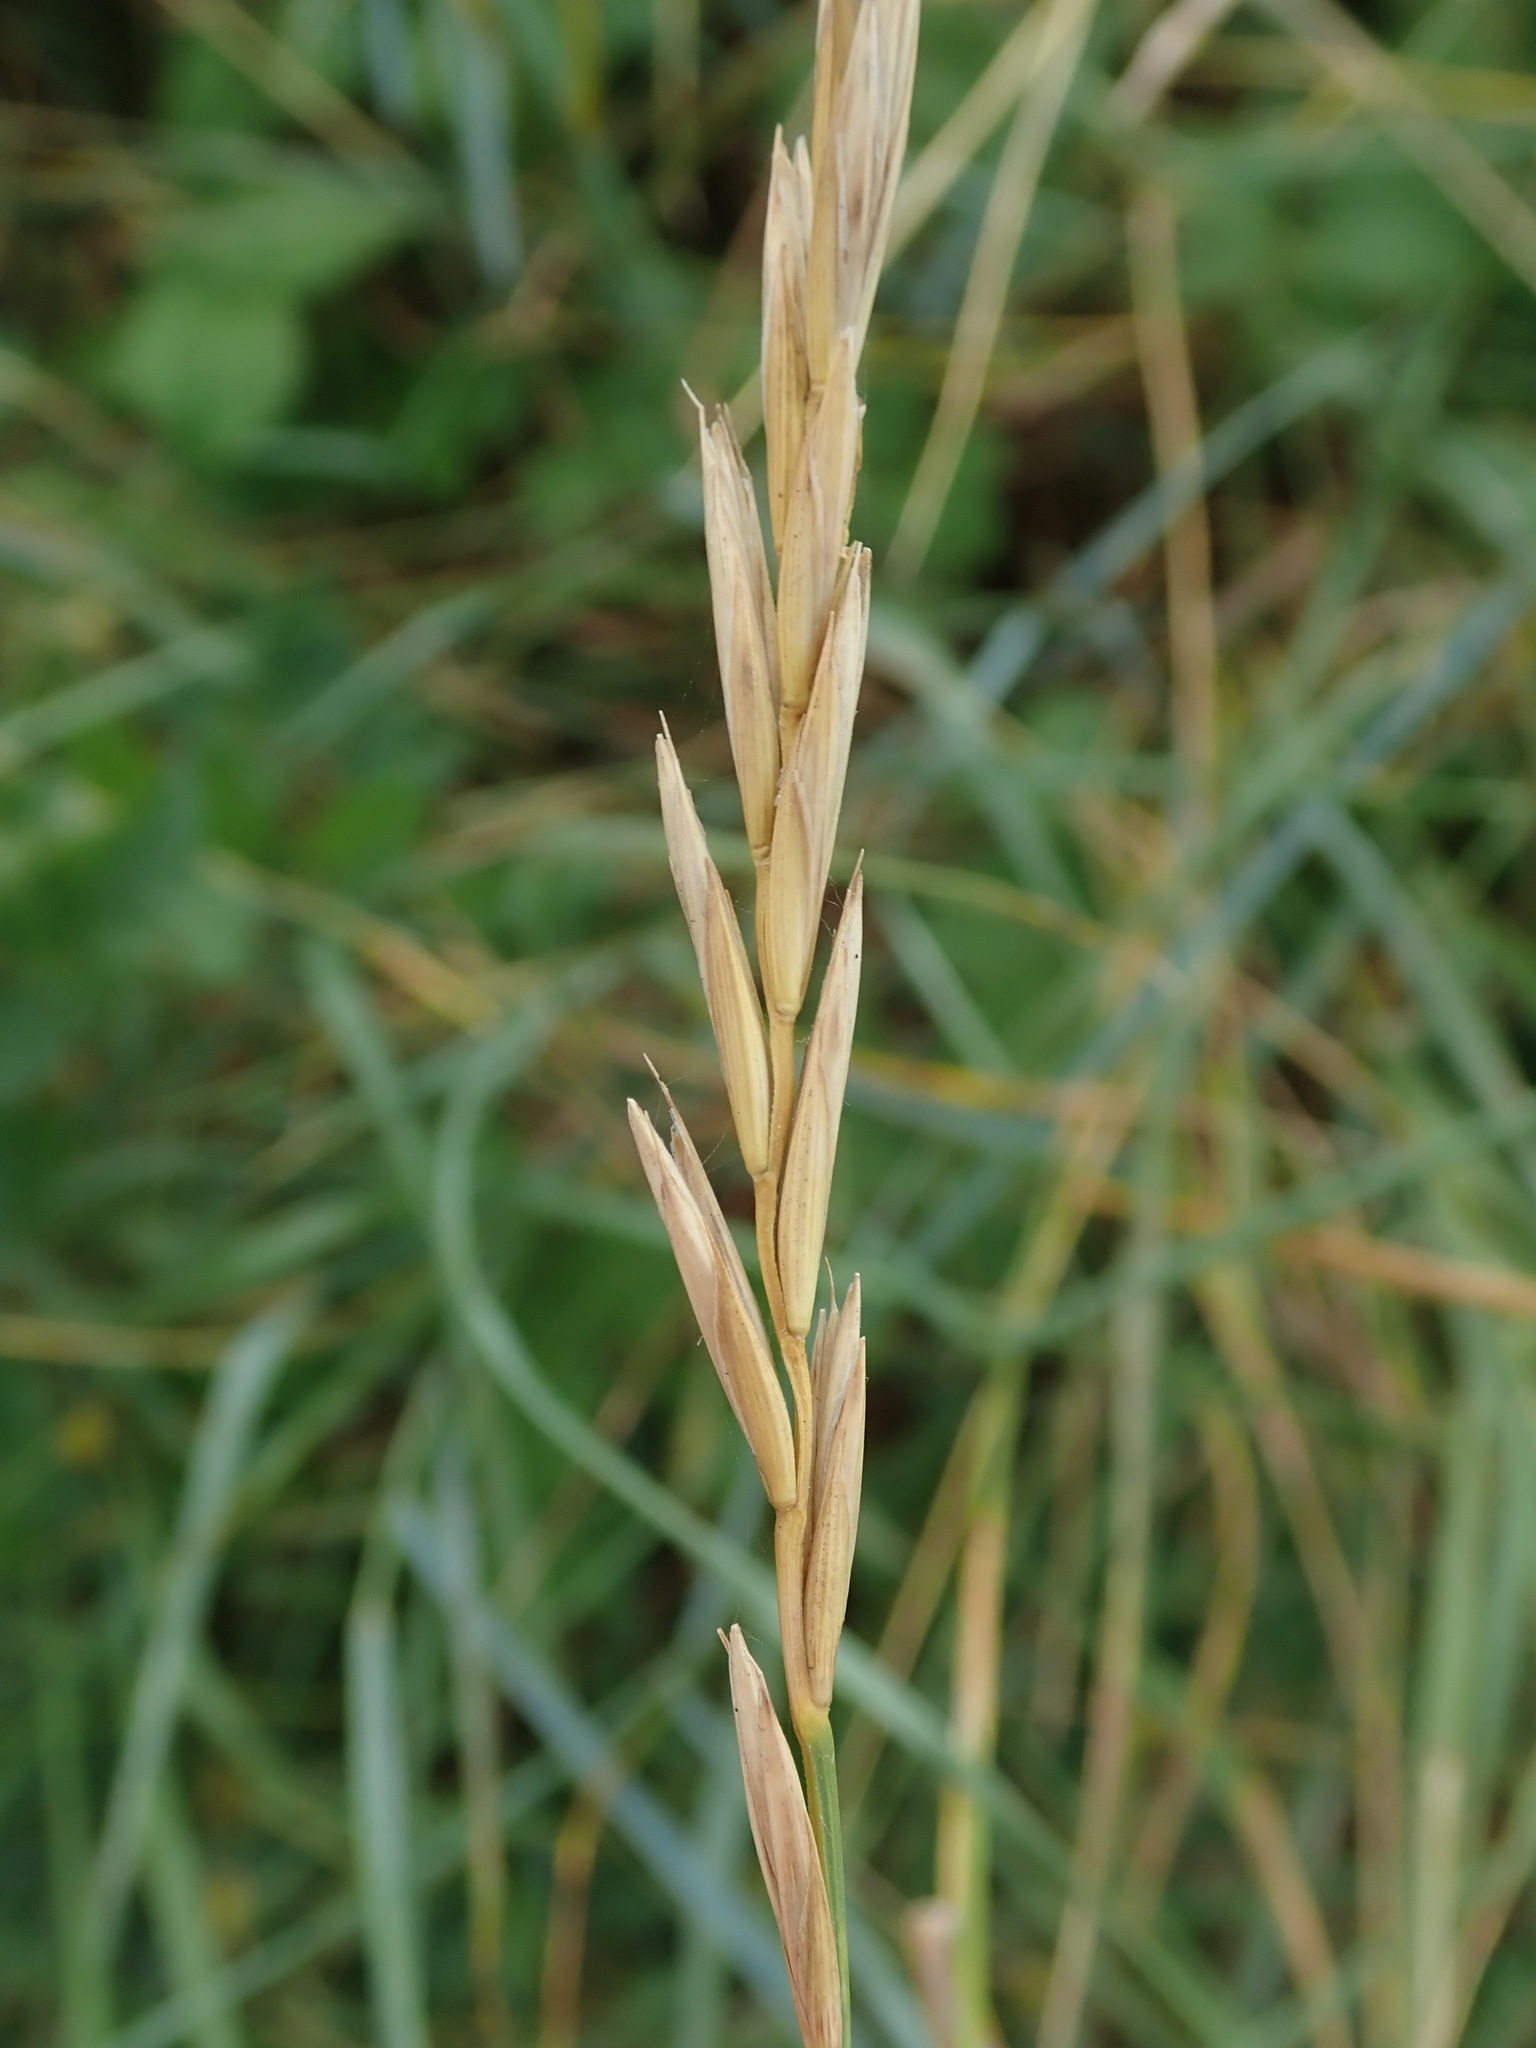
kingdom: Plantae
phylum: Tracheophyta
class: Liliopsida
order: Poales
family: Poaceae
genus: Elymus
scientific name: Elymus athericus
